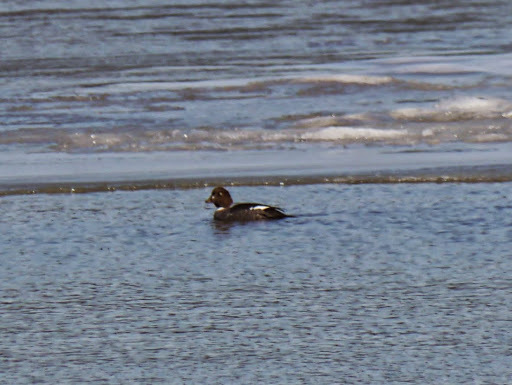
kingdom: Animalia
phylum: Chordata
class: Aves
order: Anseriformes
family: Anatidae
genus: Bucephala
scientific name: Bucephala clangula
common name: Common goldeneye
